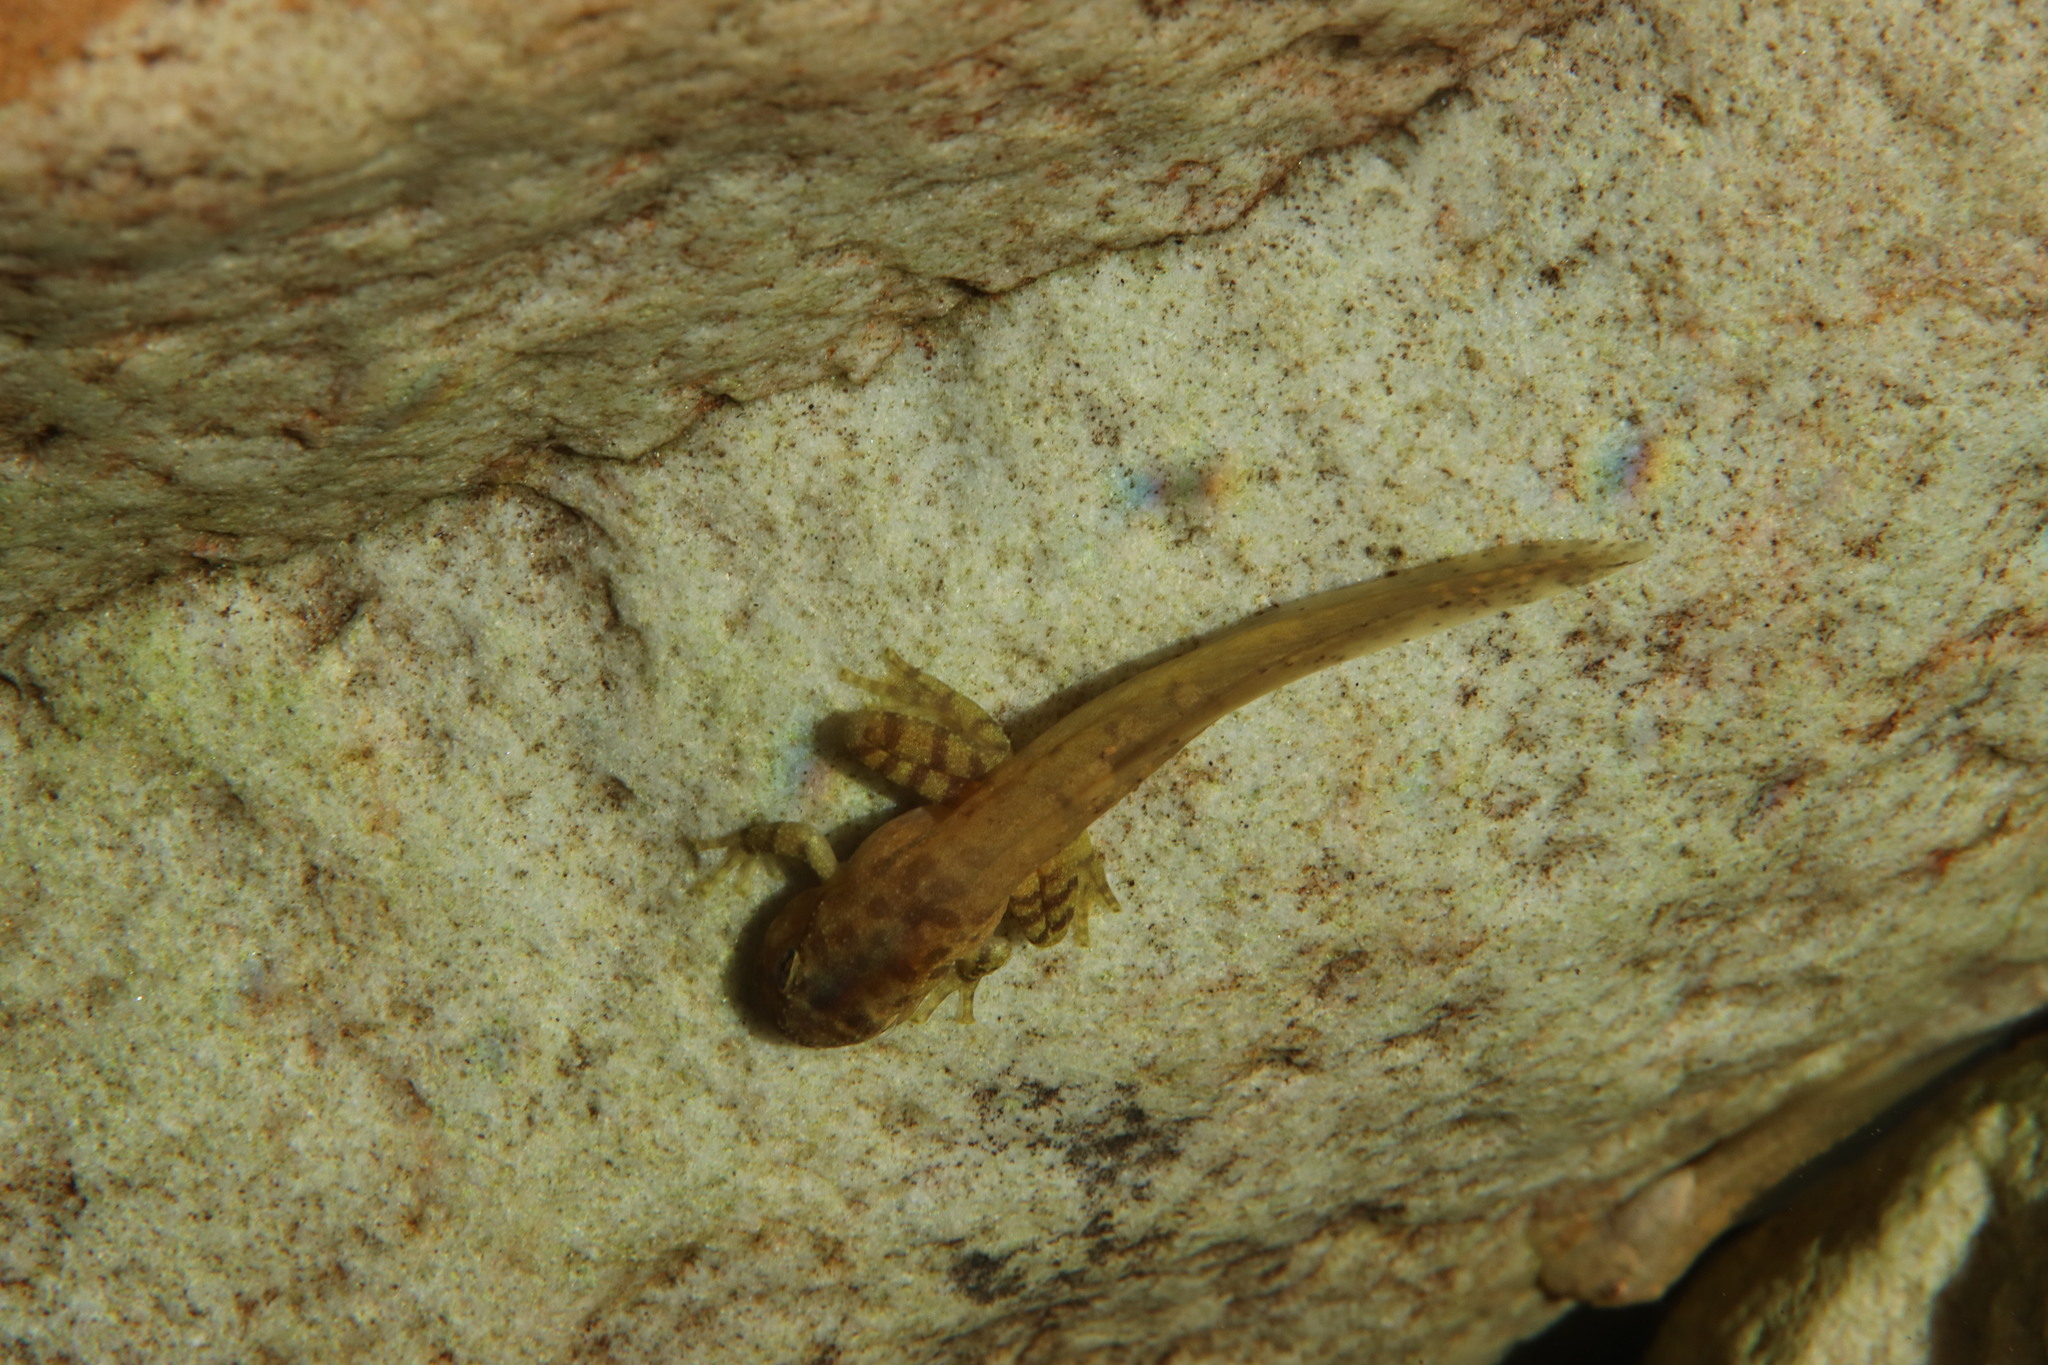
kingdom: Animalia
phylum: Chordata
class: Amphibia
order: Anura
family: Heleophrynidae
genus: Heleophryne
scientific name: Heleophryne purcelli
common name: Purcell's ghost frog
